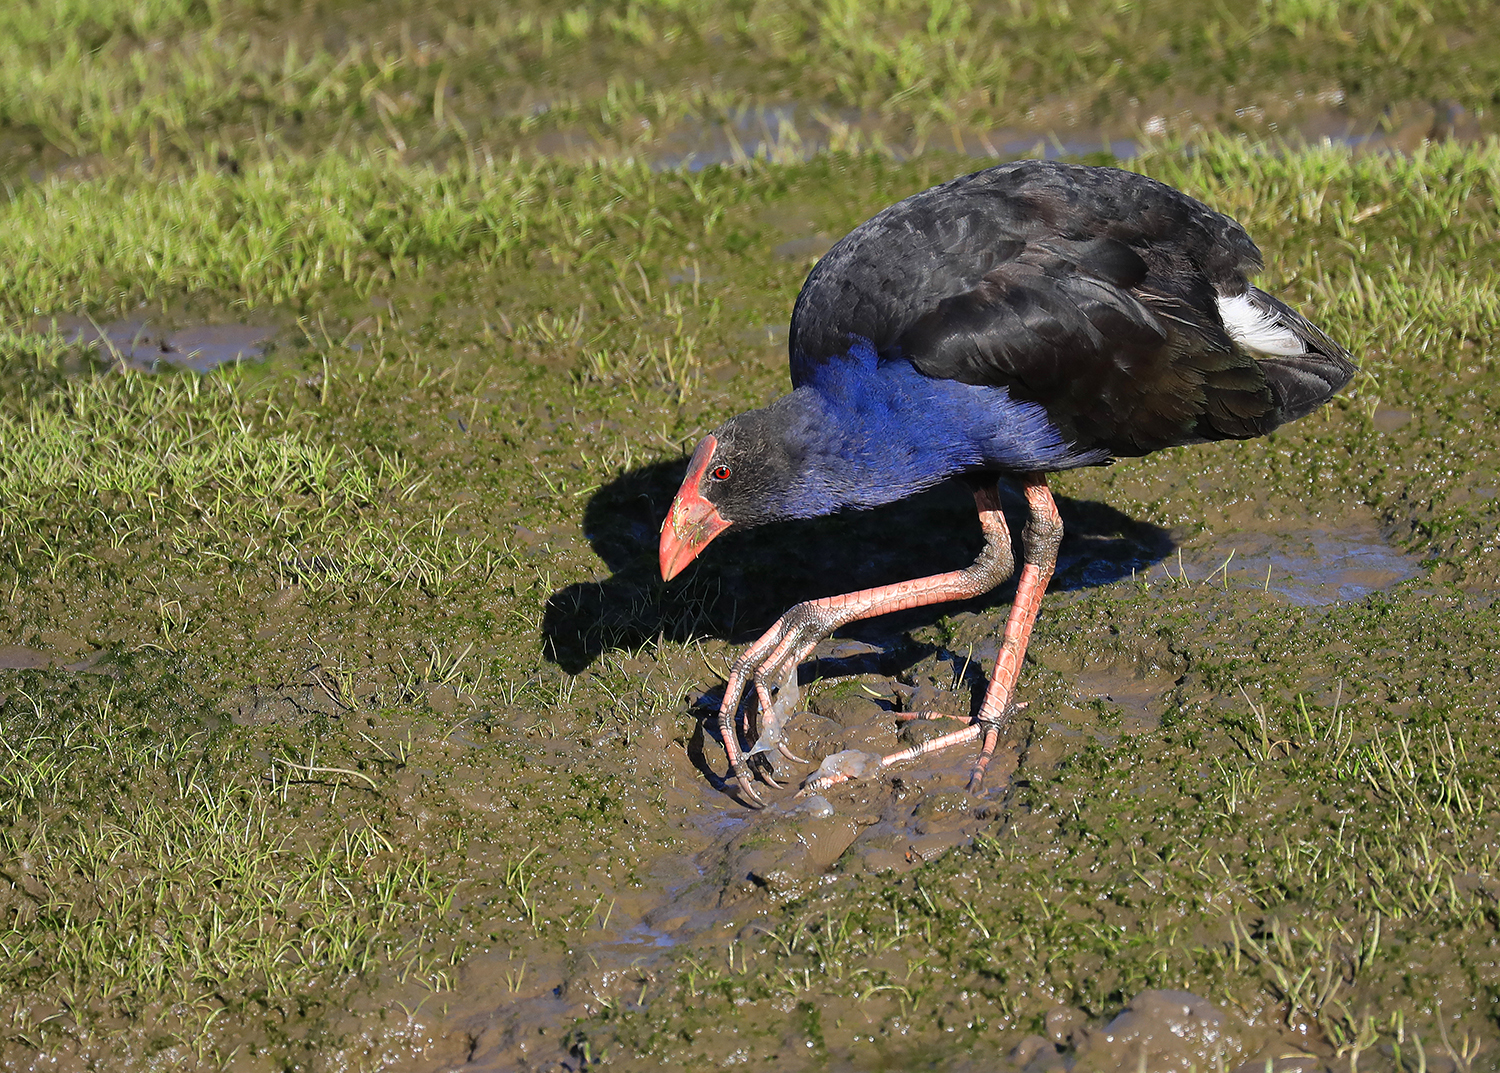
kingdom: Animalia
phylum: Chordata
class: Aves
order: Gruiformes
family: Rallidae
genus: Porphyrio
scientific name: Porphyrio melanotus
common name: Australasian swamphen
